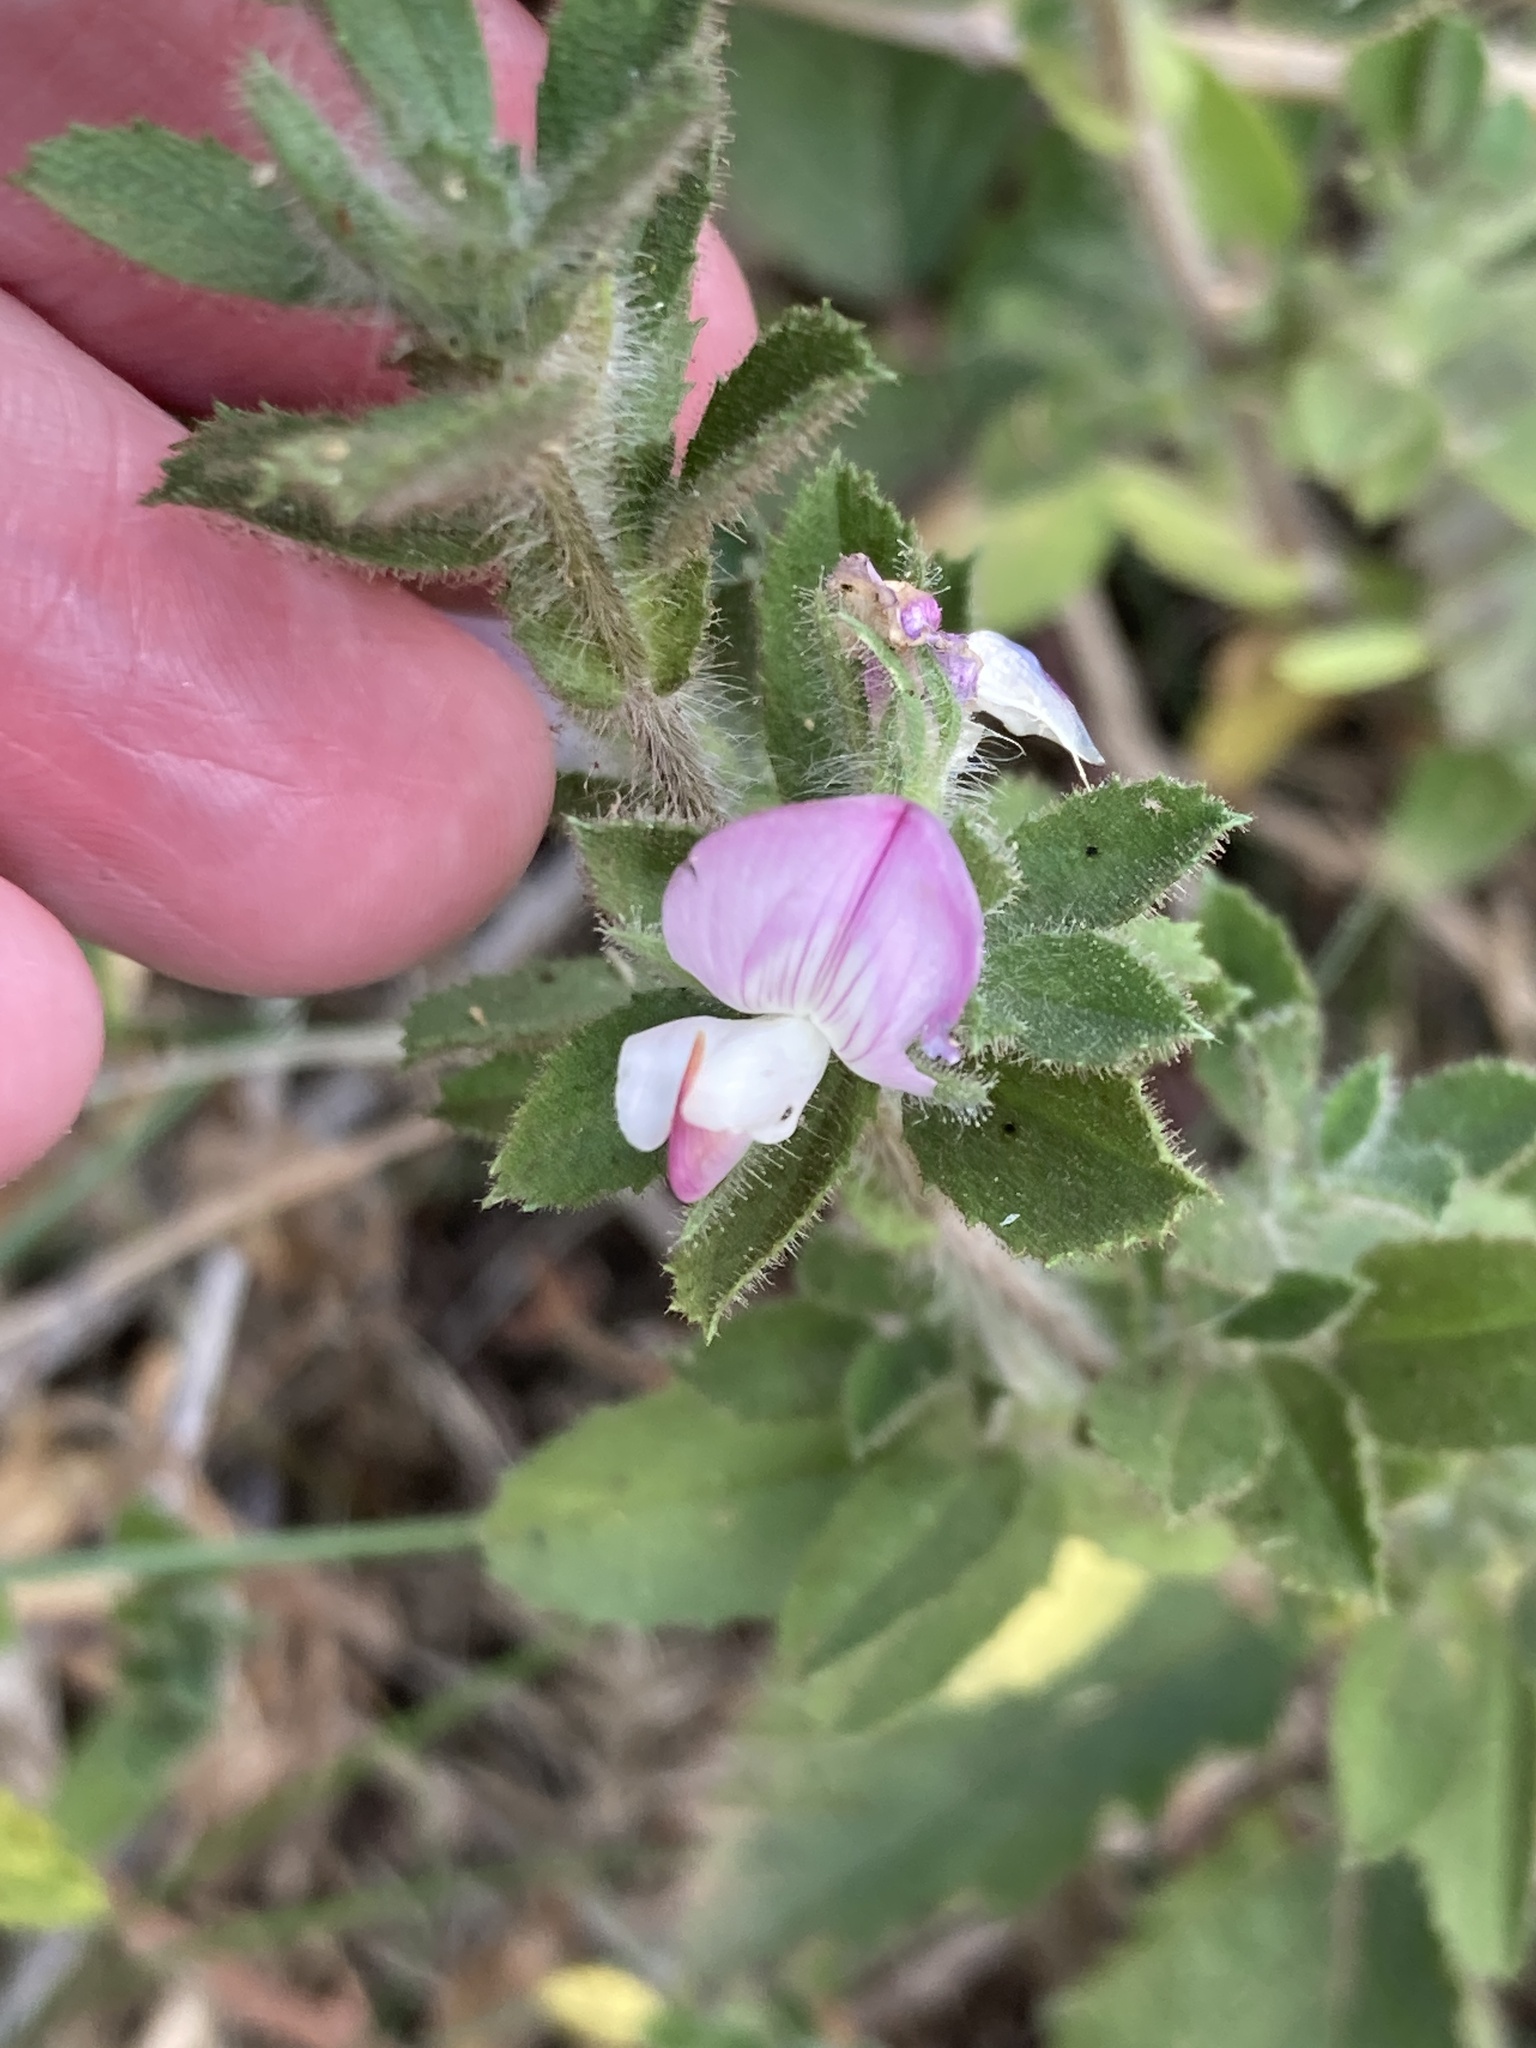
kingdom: Plantae
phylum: Tracheophyta
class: Magnoliopsida
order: Fabales
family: Fabaceae
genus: Ononis
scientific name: Ononis spinosa
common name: Spiny restharrow
